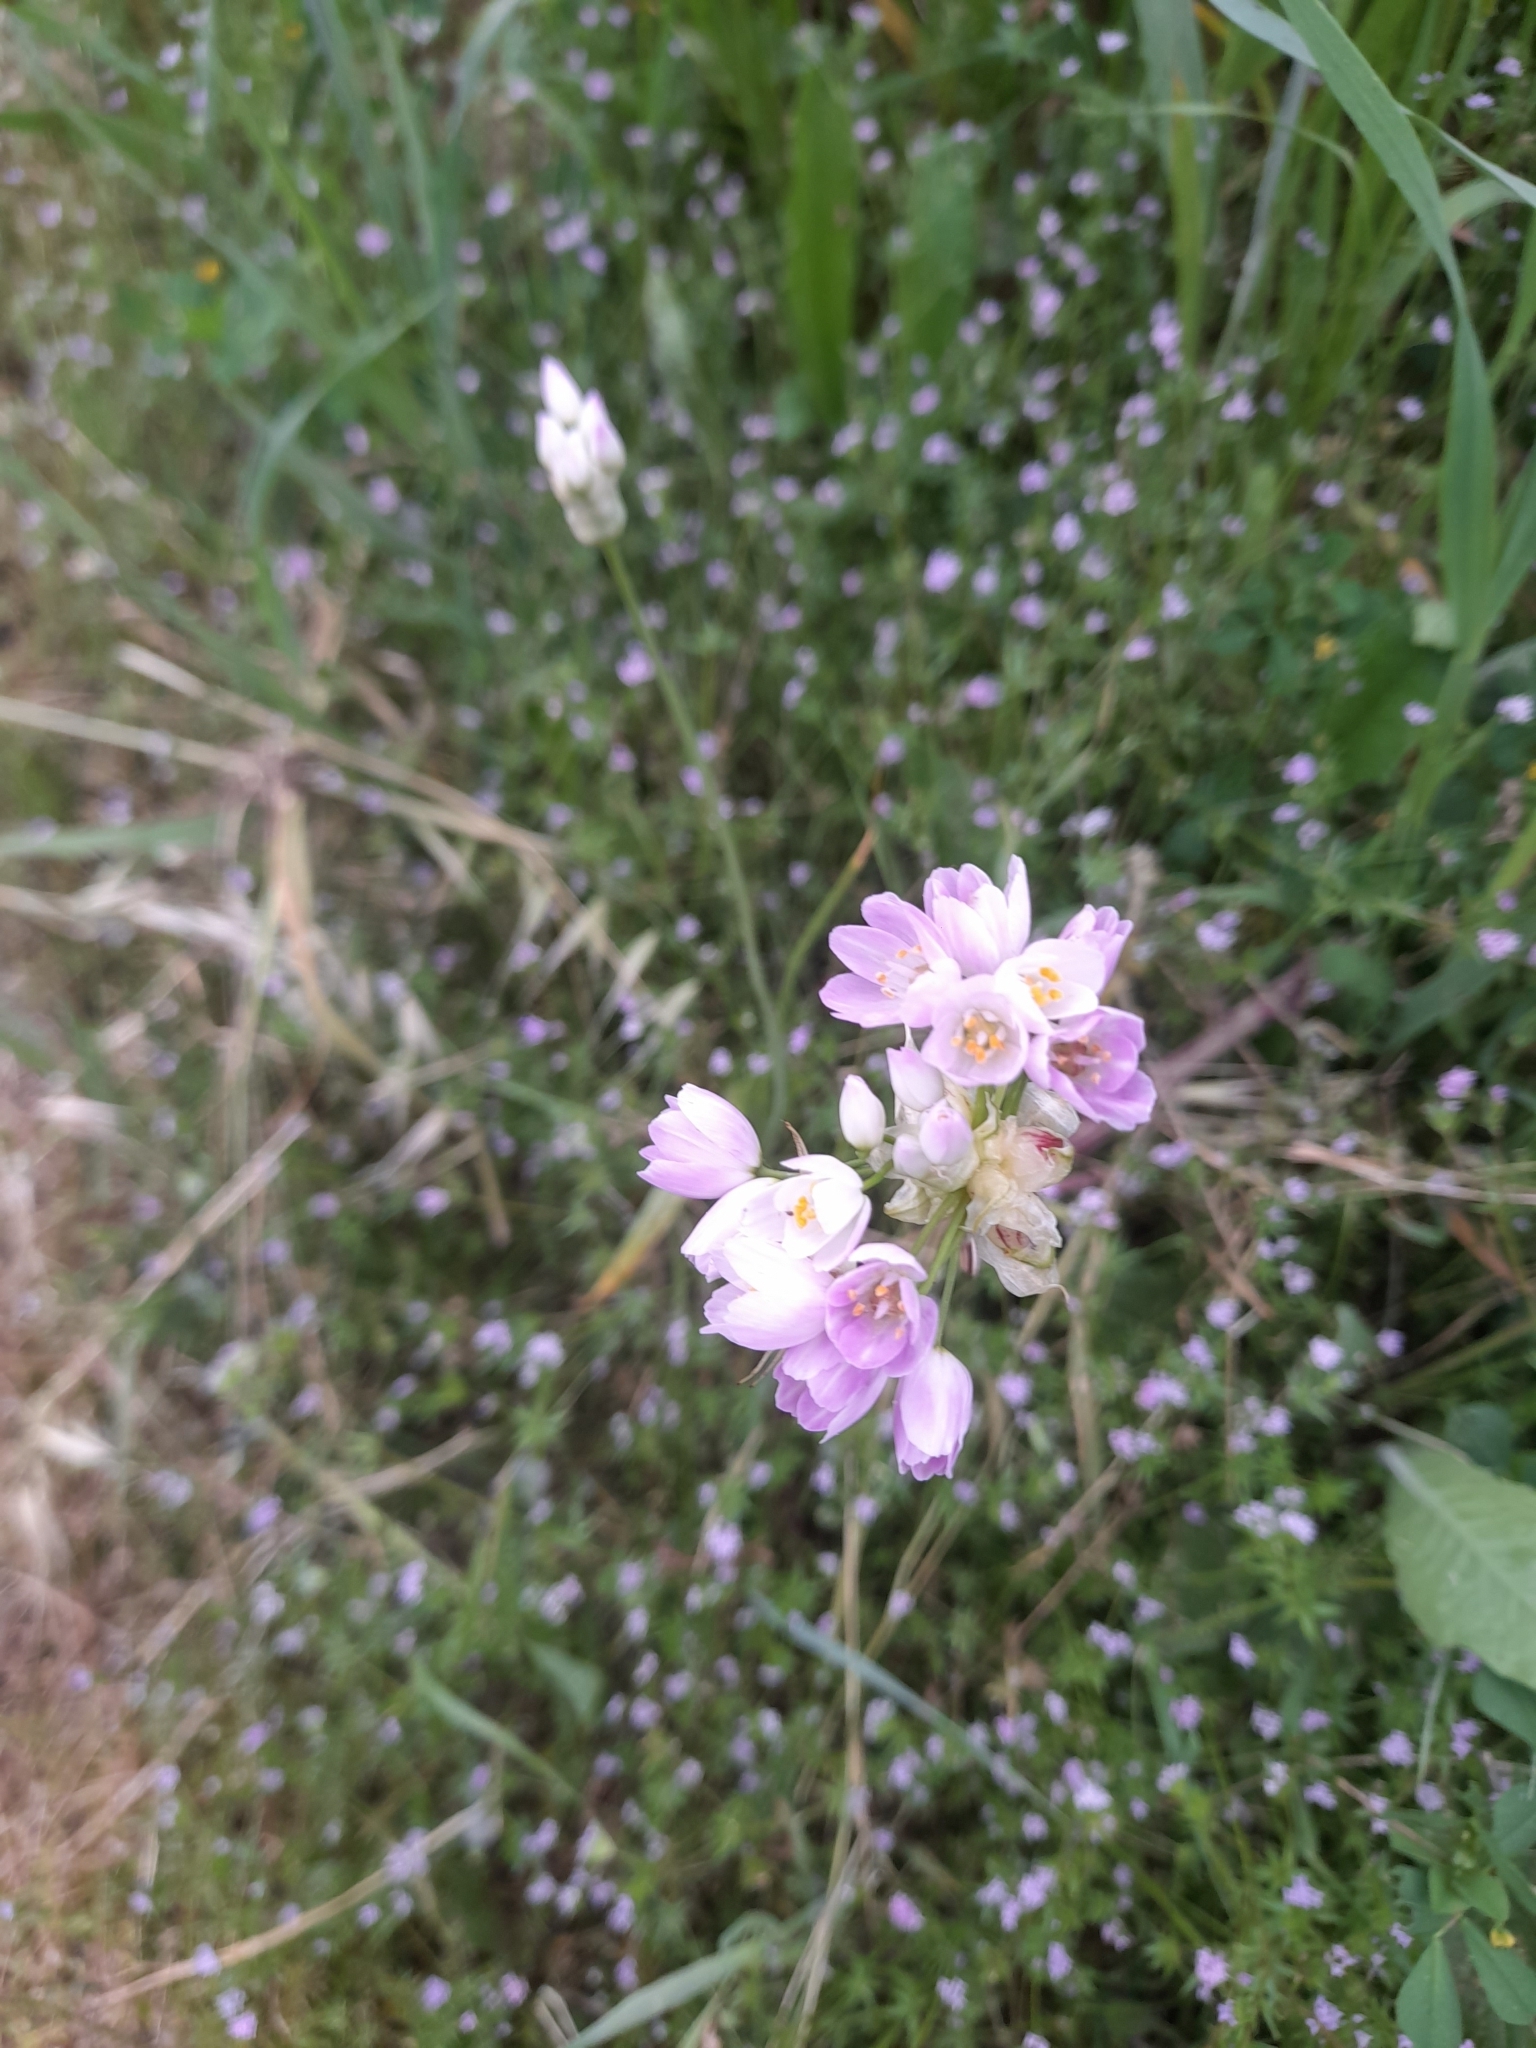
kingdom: Plantae
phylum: Tracheophyta
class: Liliopsida
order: Asparagales
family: Amaryllidaceae
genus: Allium
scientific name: Allium roseum
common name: Rosy garlic
